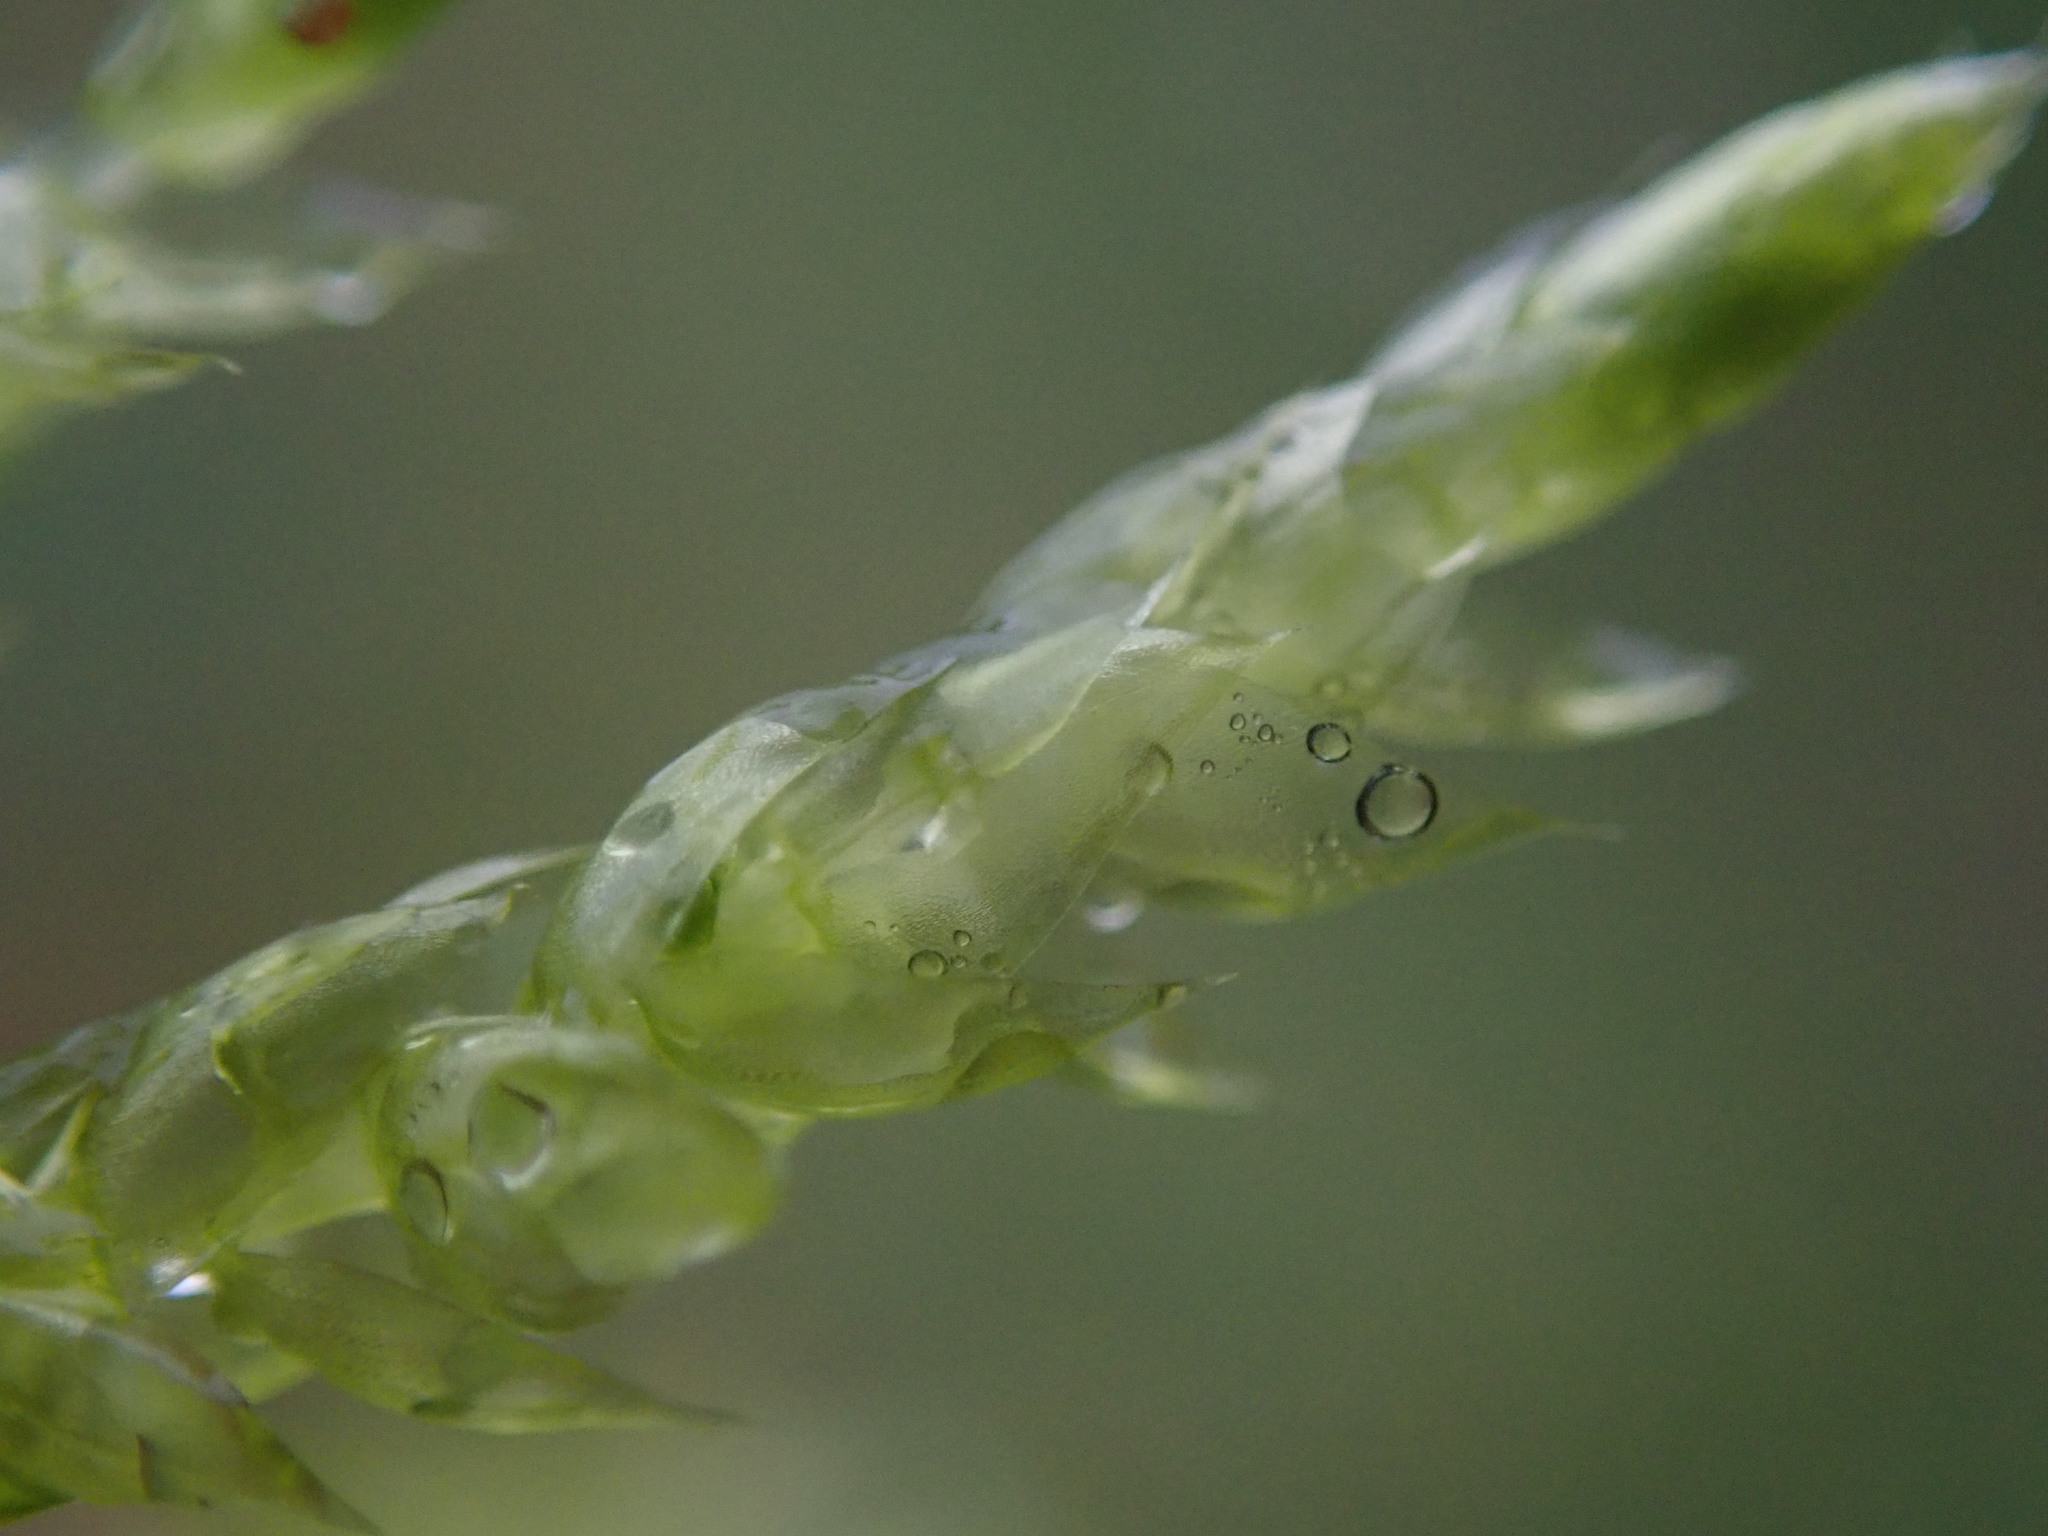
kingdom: Plantae
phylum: Bryophyta
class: Bryopsida
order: Hypnales
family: Brachytheciaceae
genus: Brachythecium
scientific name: Brachythecium rutabulum
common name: Rough-stalked feather-moss
